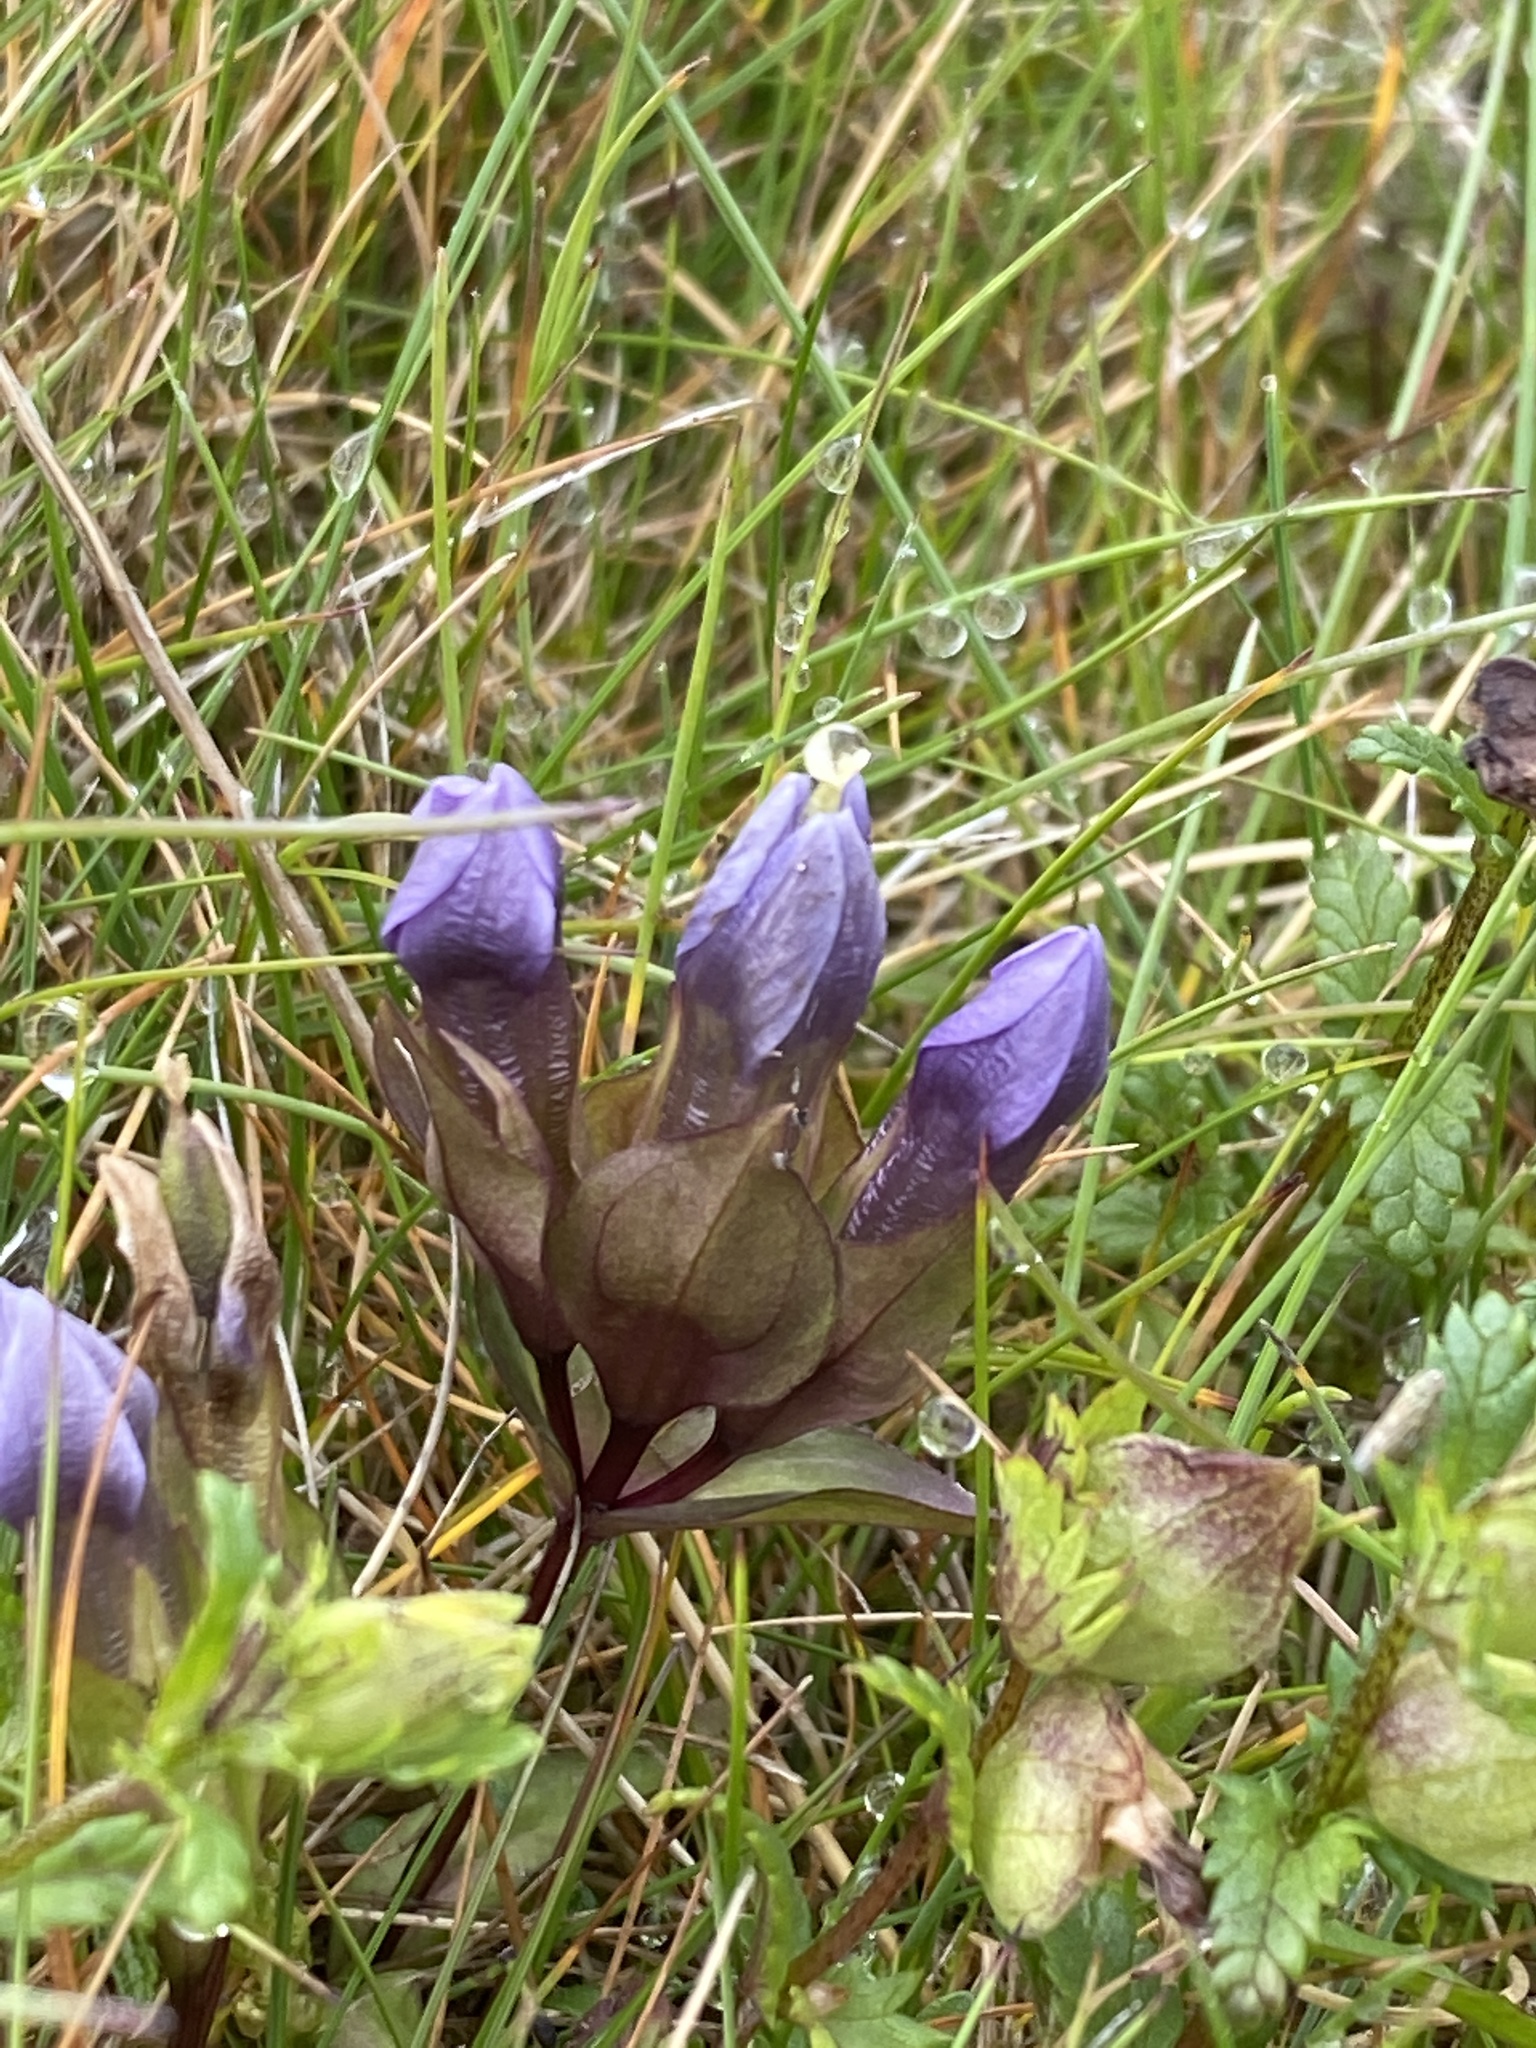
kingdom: Plantae
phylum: Tracheophyta
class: Magnoliopsida
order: Gentianales
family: Gentianaceae
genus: Gentianella
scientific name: Gentianella campestris
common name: Field gentian
